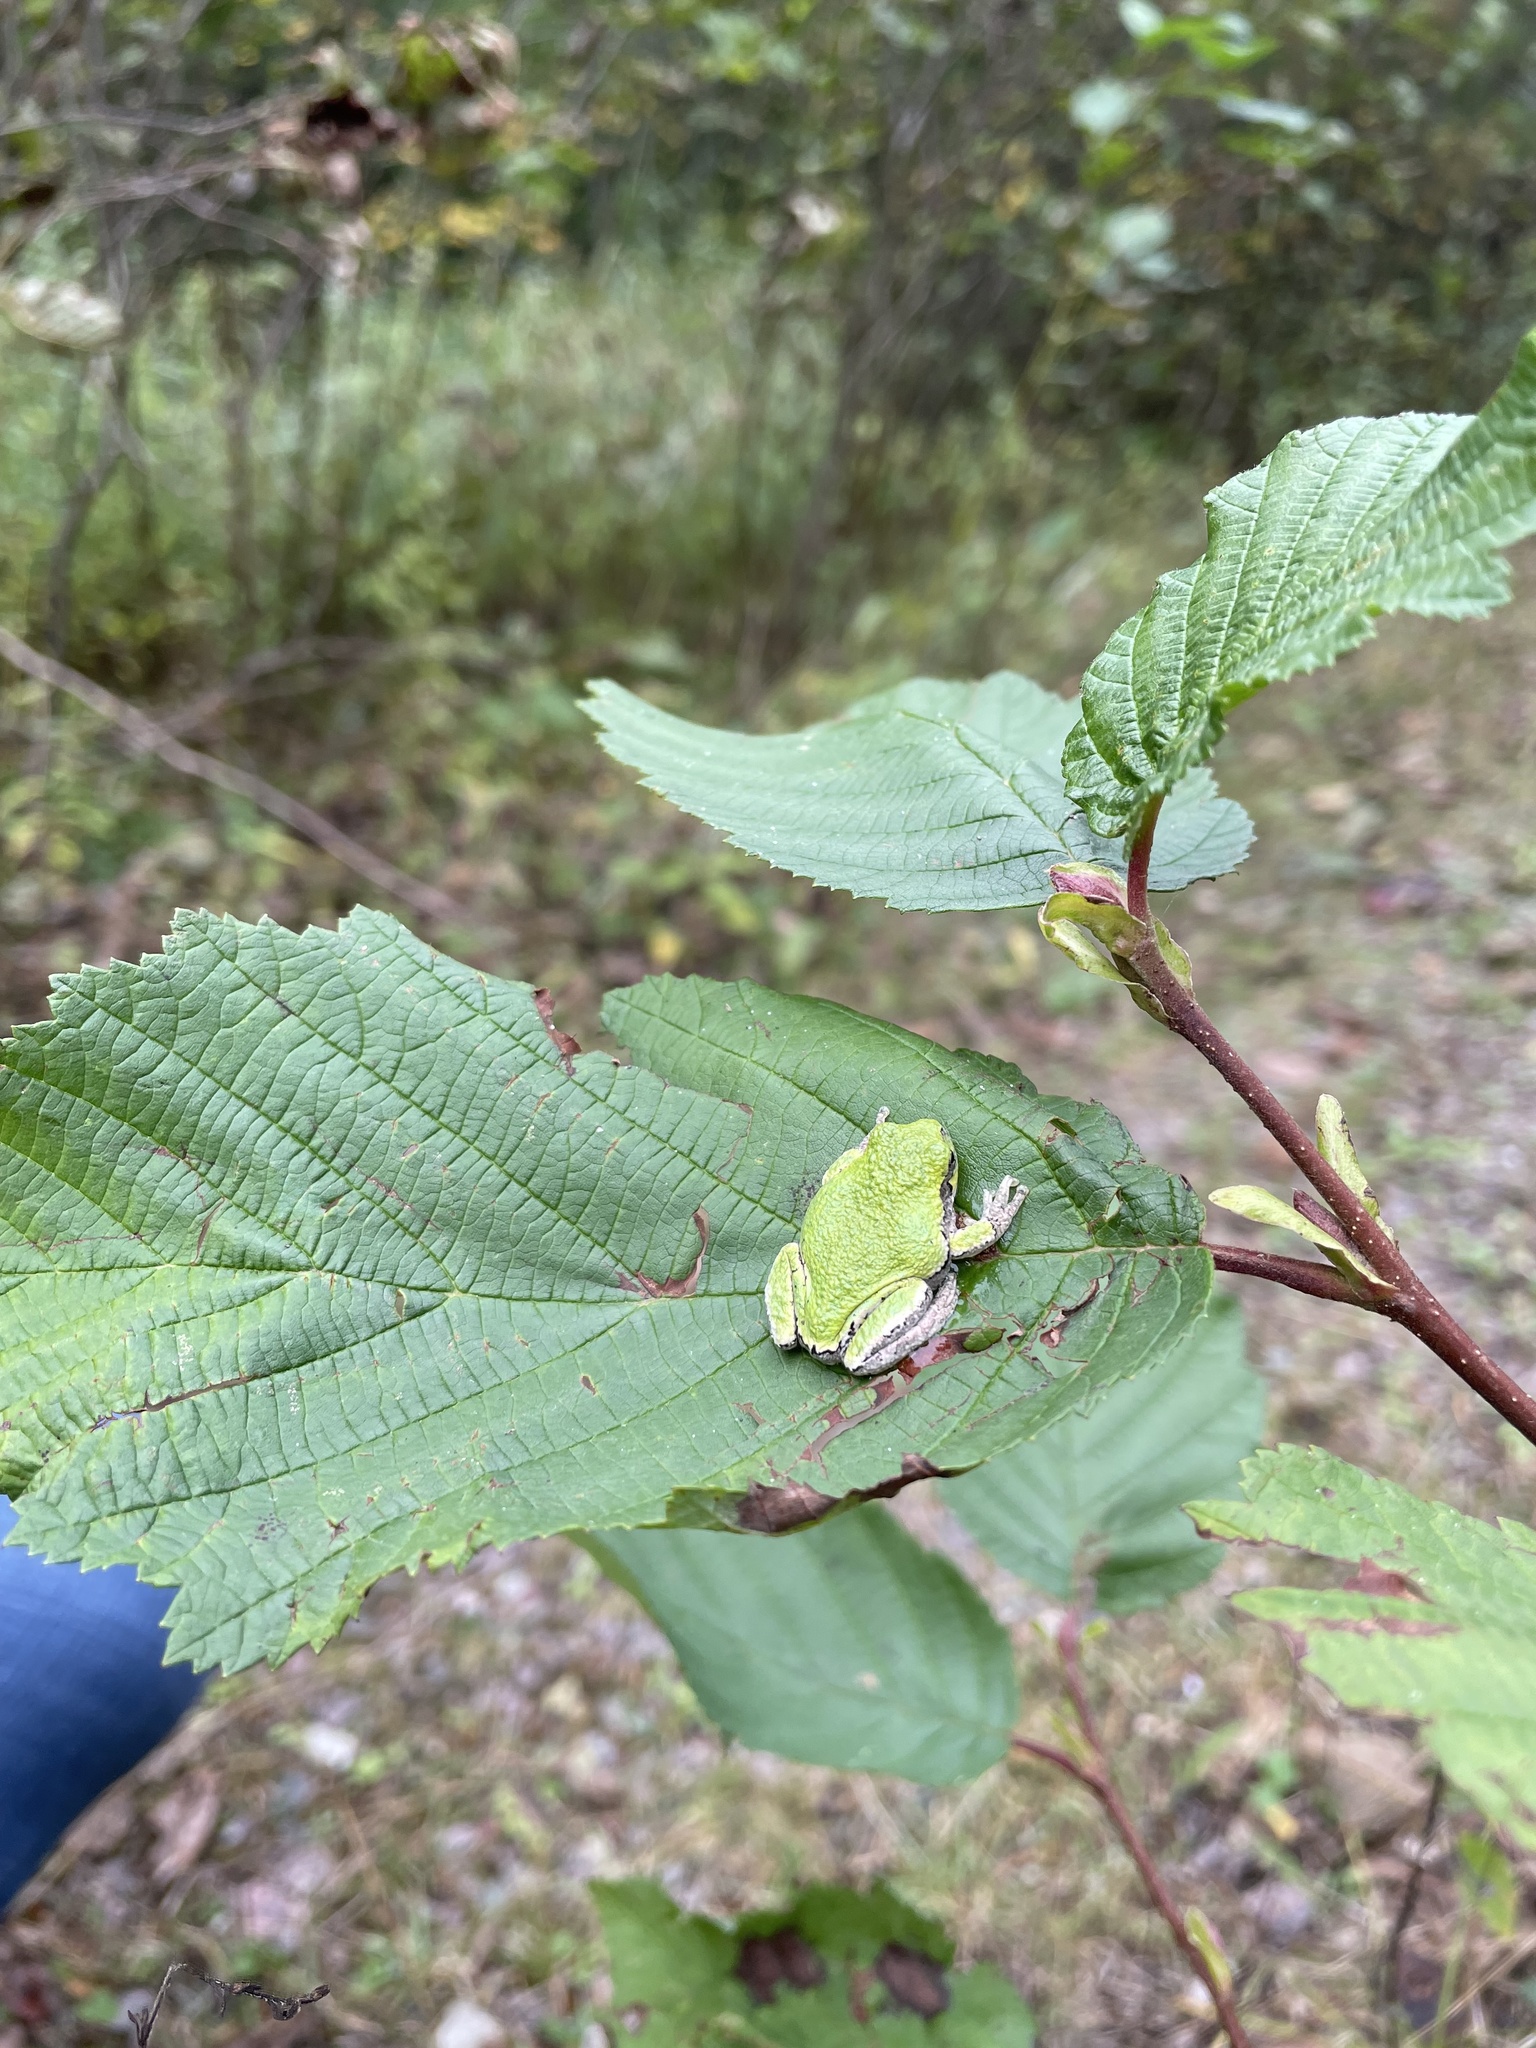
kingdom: Animalia
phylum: Chordata
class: Amphibia
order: Anura
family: Hylidae
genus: Dryophytes
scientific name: Dryophytes versicolor
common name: Gray treefrog
